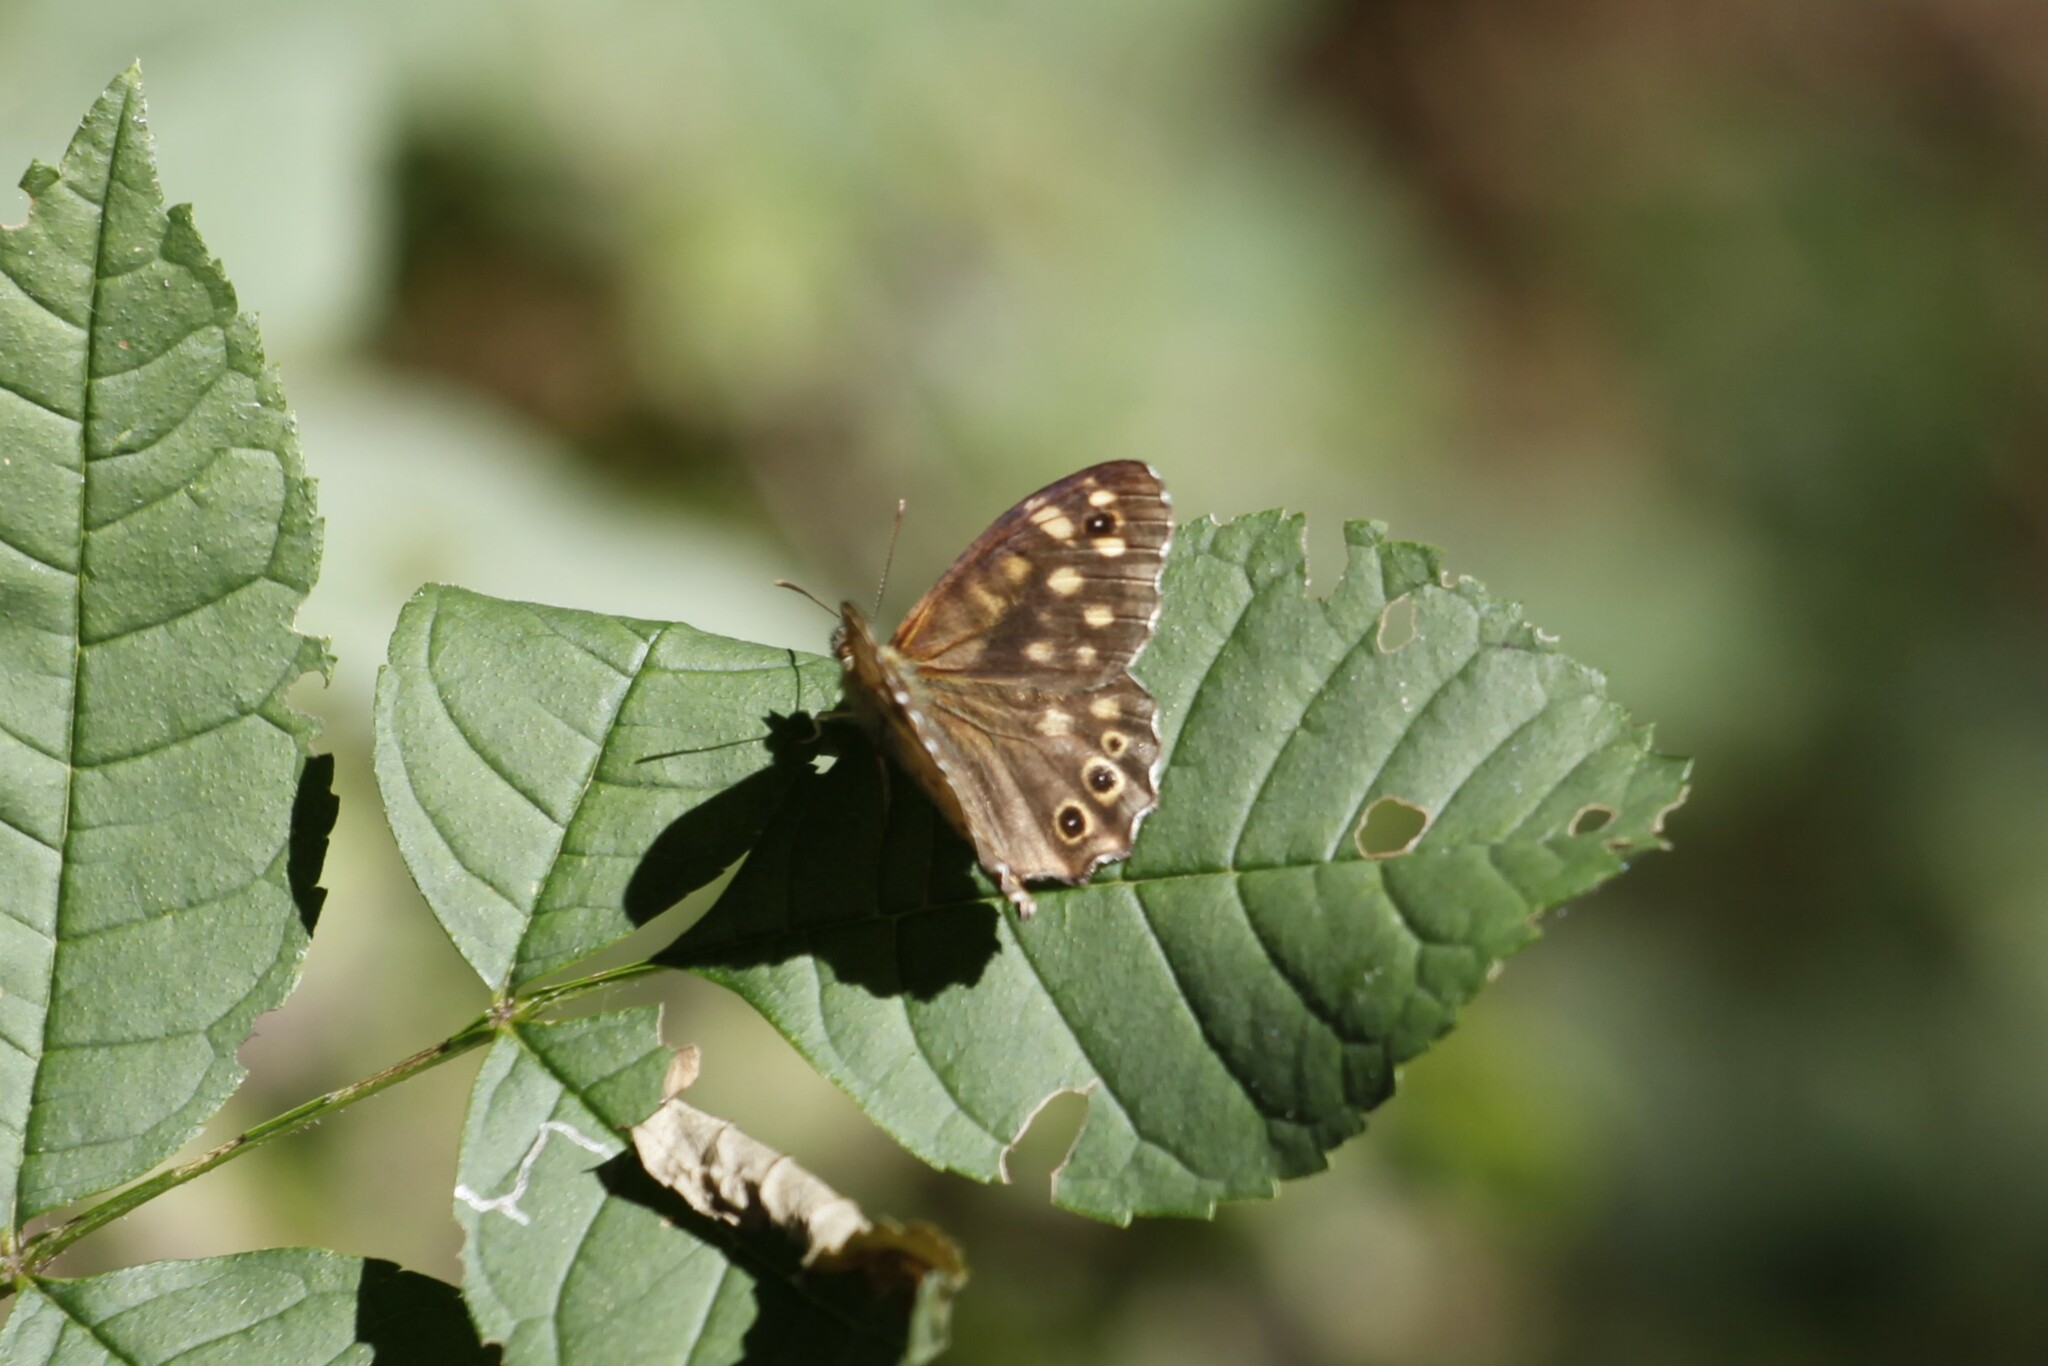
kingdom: Animalia
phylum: Arthropoda
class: Insecta
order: Lepidoptera
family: Nymphalidae
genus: Pararge
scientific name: Pararge aegeria
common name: Speckled wood
